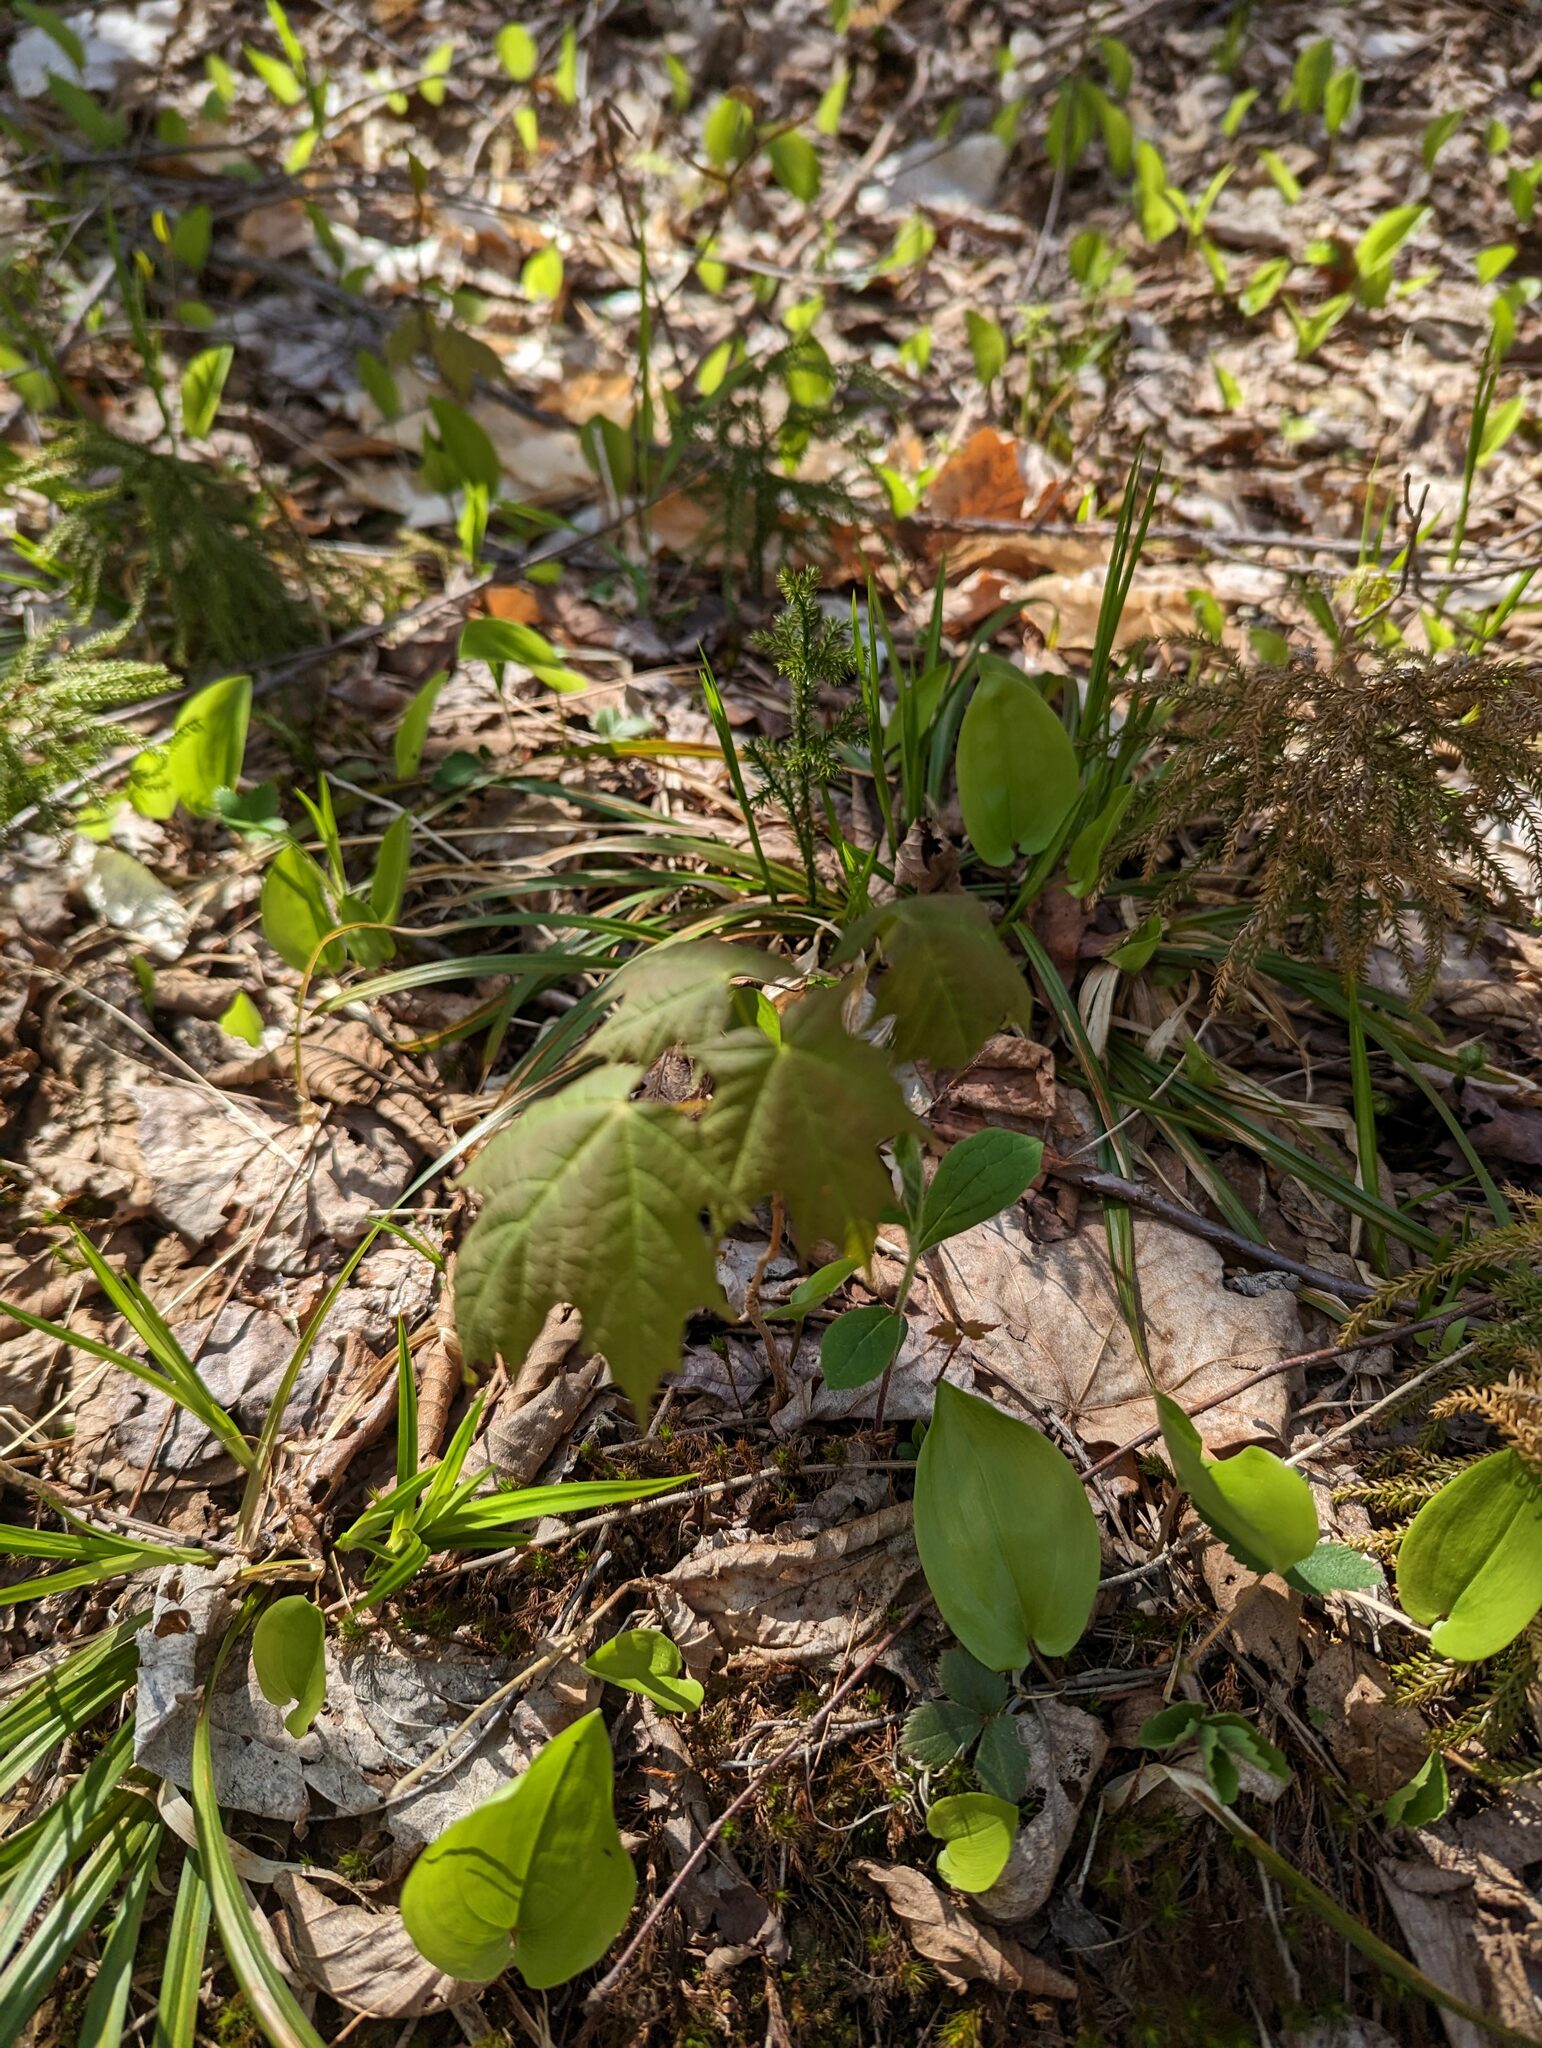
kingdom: Plantae
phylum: Tracheophyta
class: Liliopsida
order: Asparagales
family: Asparagaceae
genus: Maianthemum
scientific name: Maianthemum canadense
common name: False lily-of-the-valley
